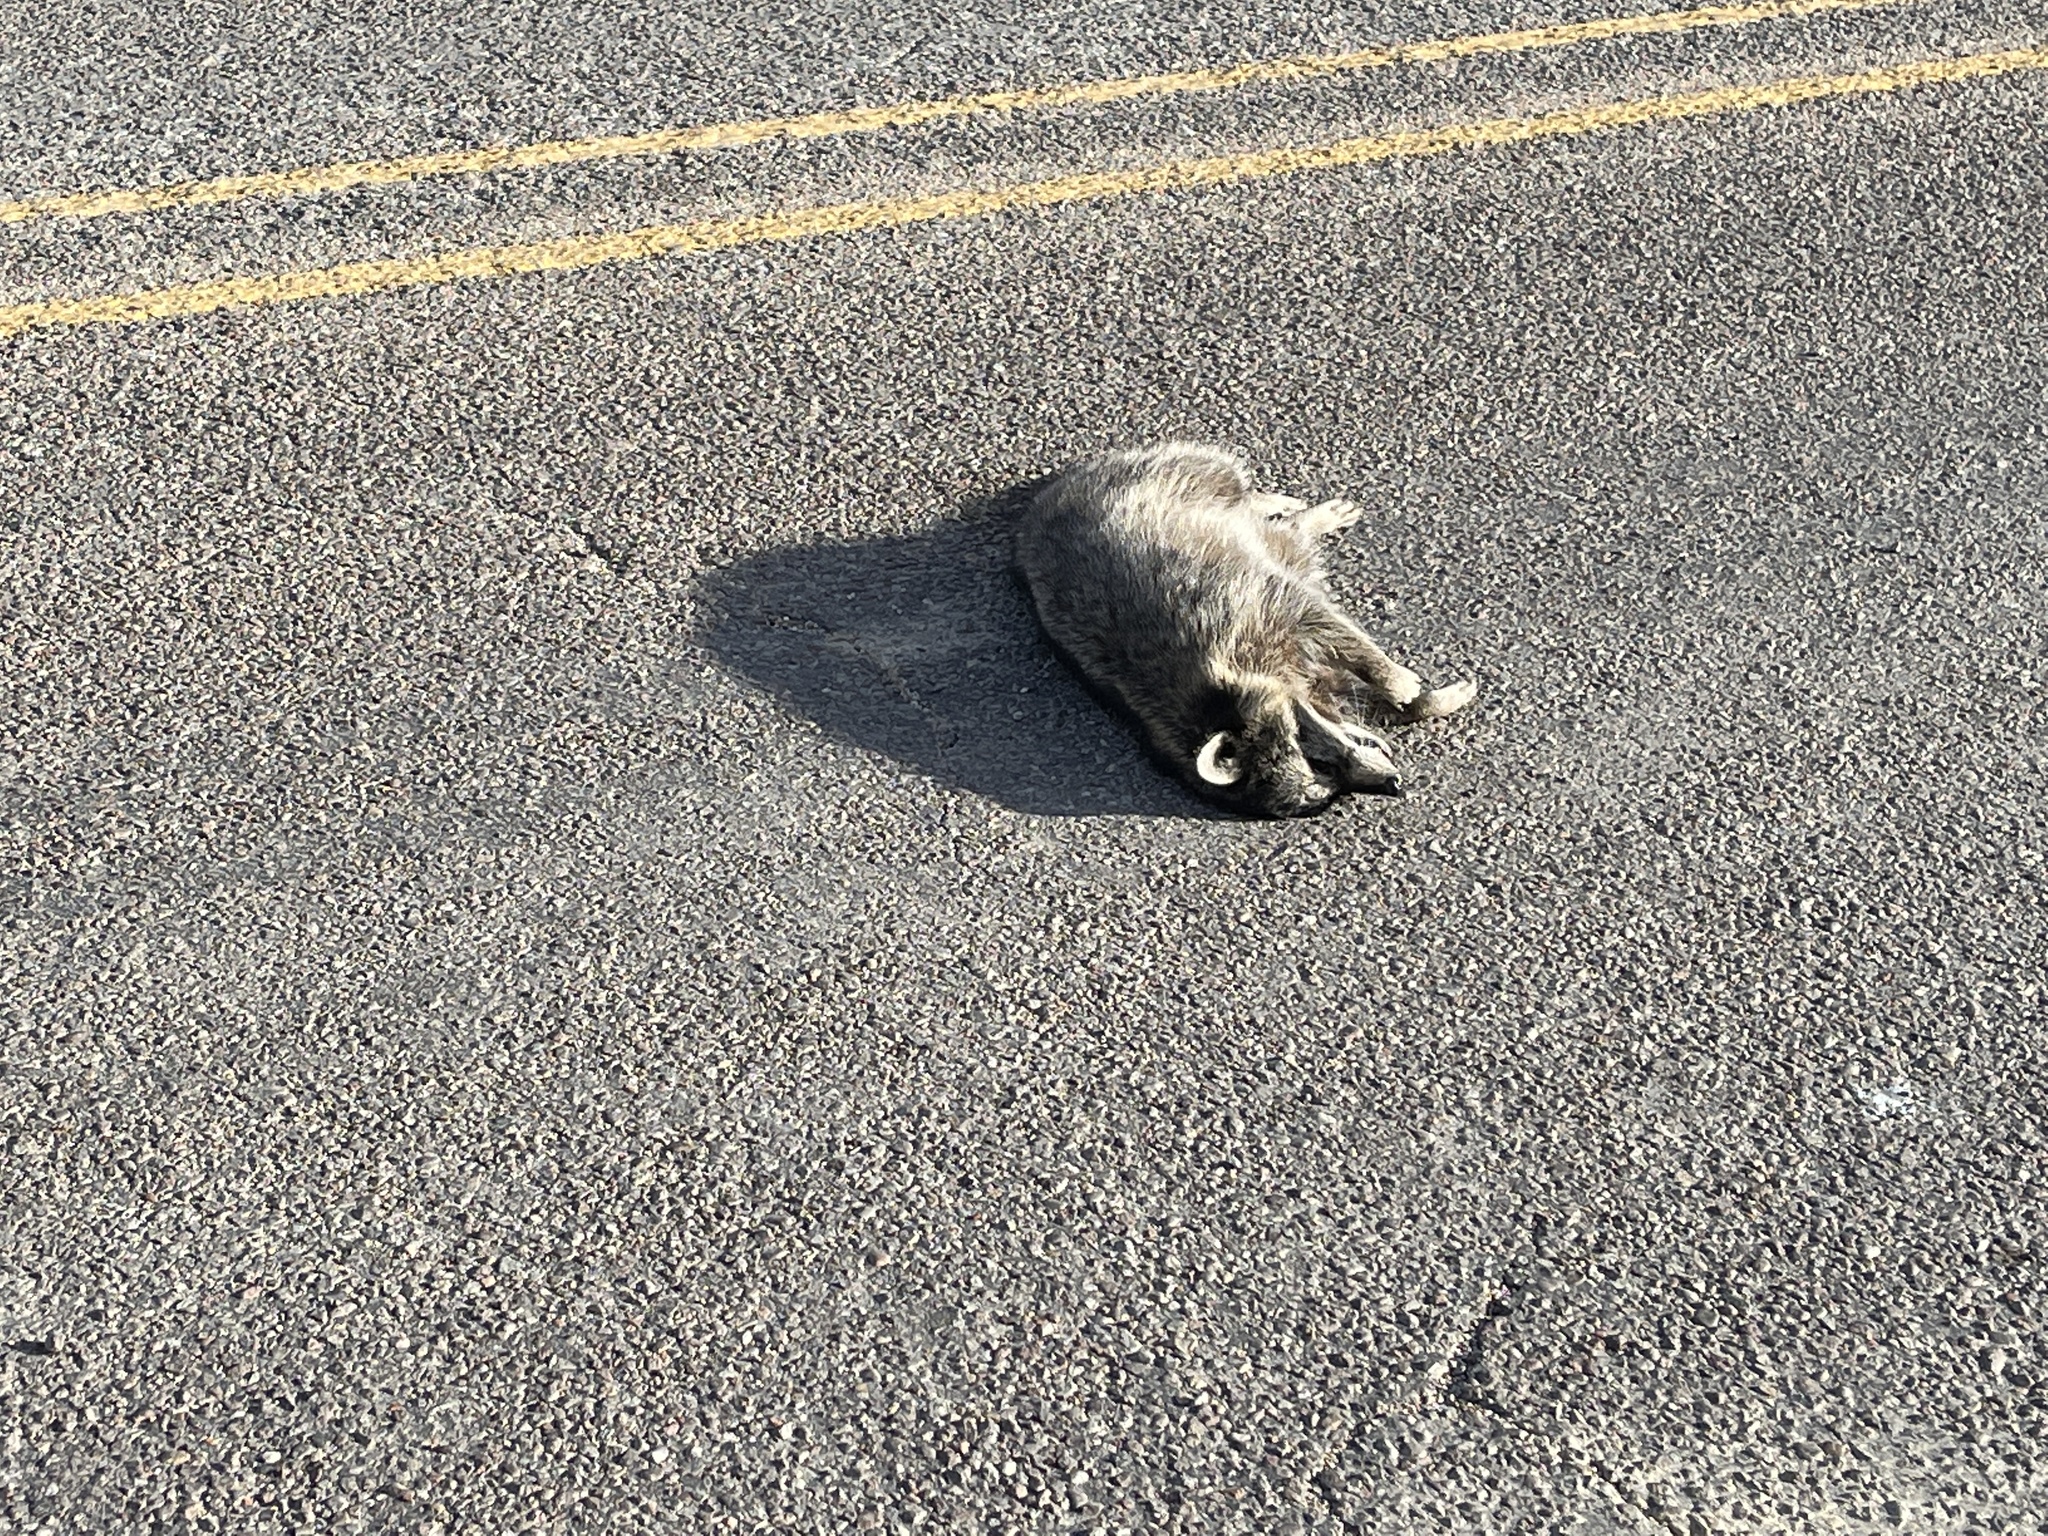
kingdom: Animalia
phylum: Chordata
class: Mammalia
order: Carnivora
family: Procyonidae
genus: Procyon
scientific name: Procyon lotor
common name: Raccoon
